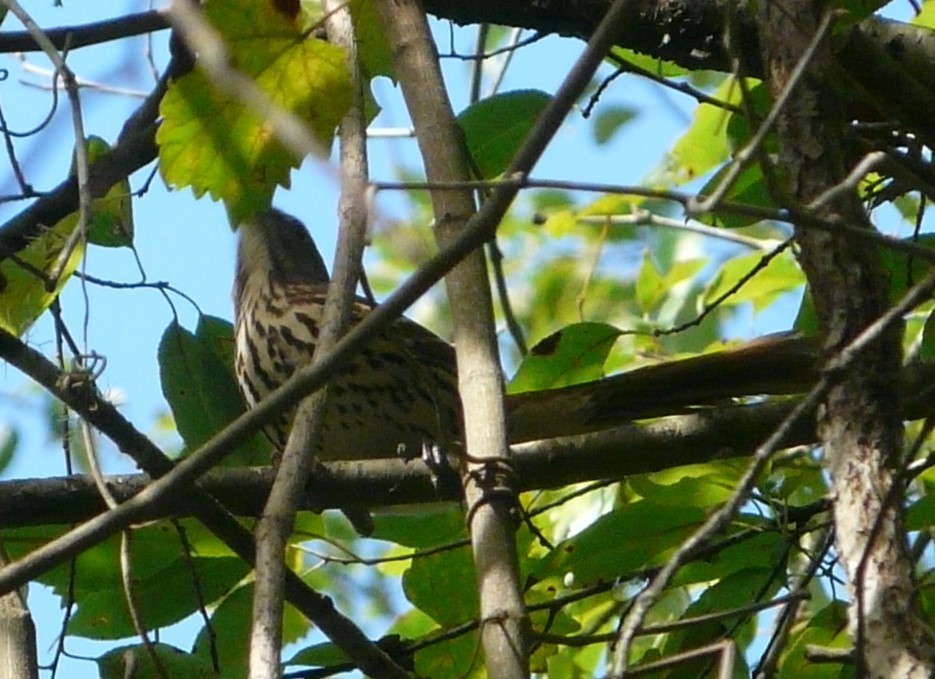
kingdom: Animalia
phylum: Chordata
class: Aves
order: Passeriformes
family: Mimidae
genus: Toxostoma
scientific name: Toxostoma rufum
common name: Brown thrasher
